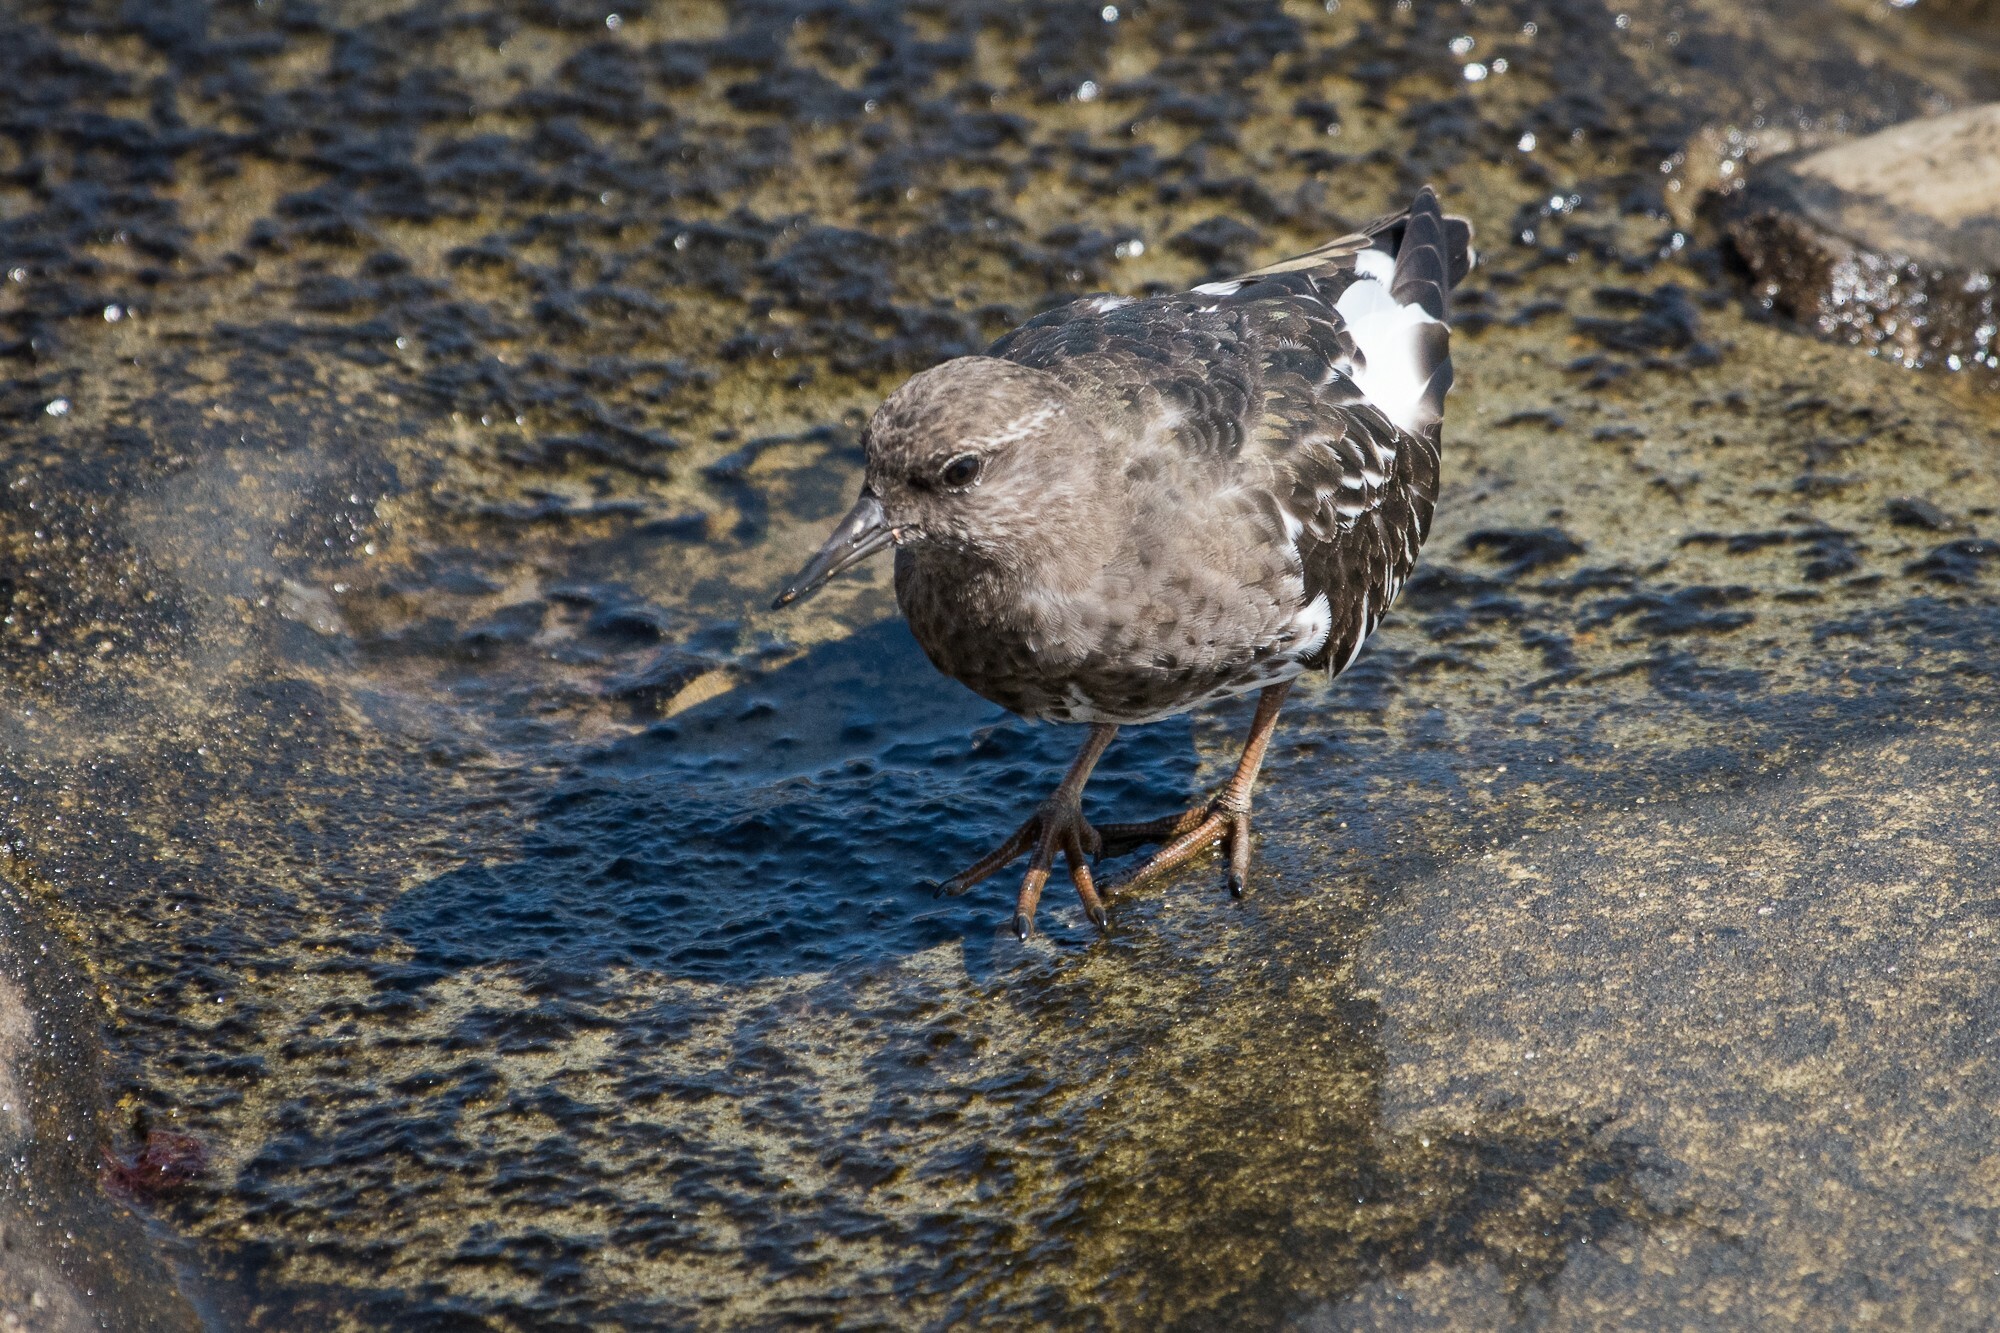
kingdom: Animalia
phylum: Chordata
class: Aves
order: Charadriiformes
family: Scolopacidae
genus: Arenaria
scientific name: Arenaria melanocephala
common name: Black turnstone
